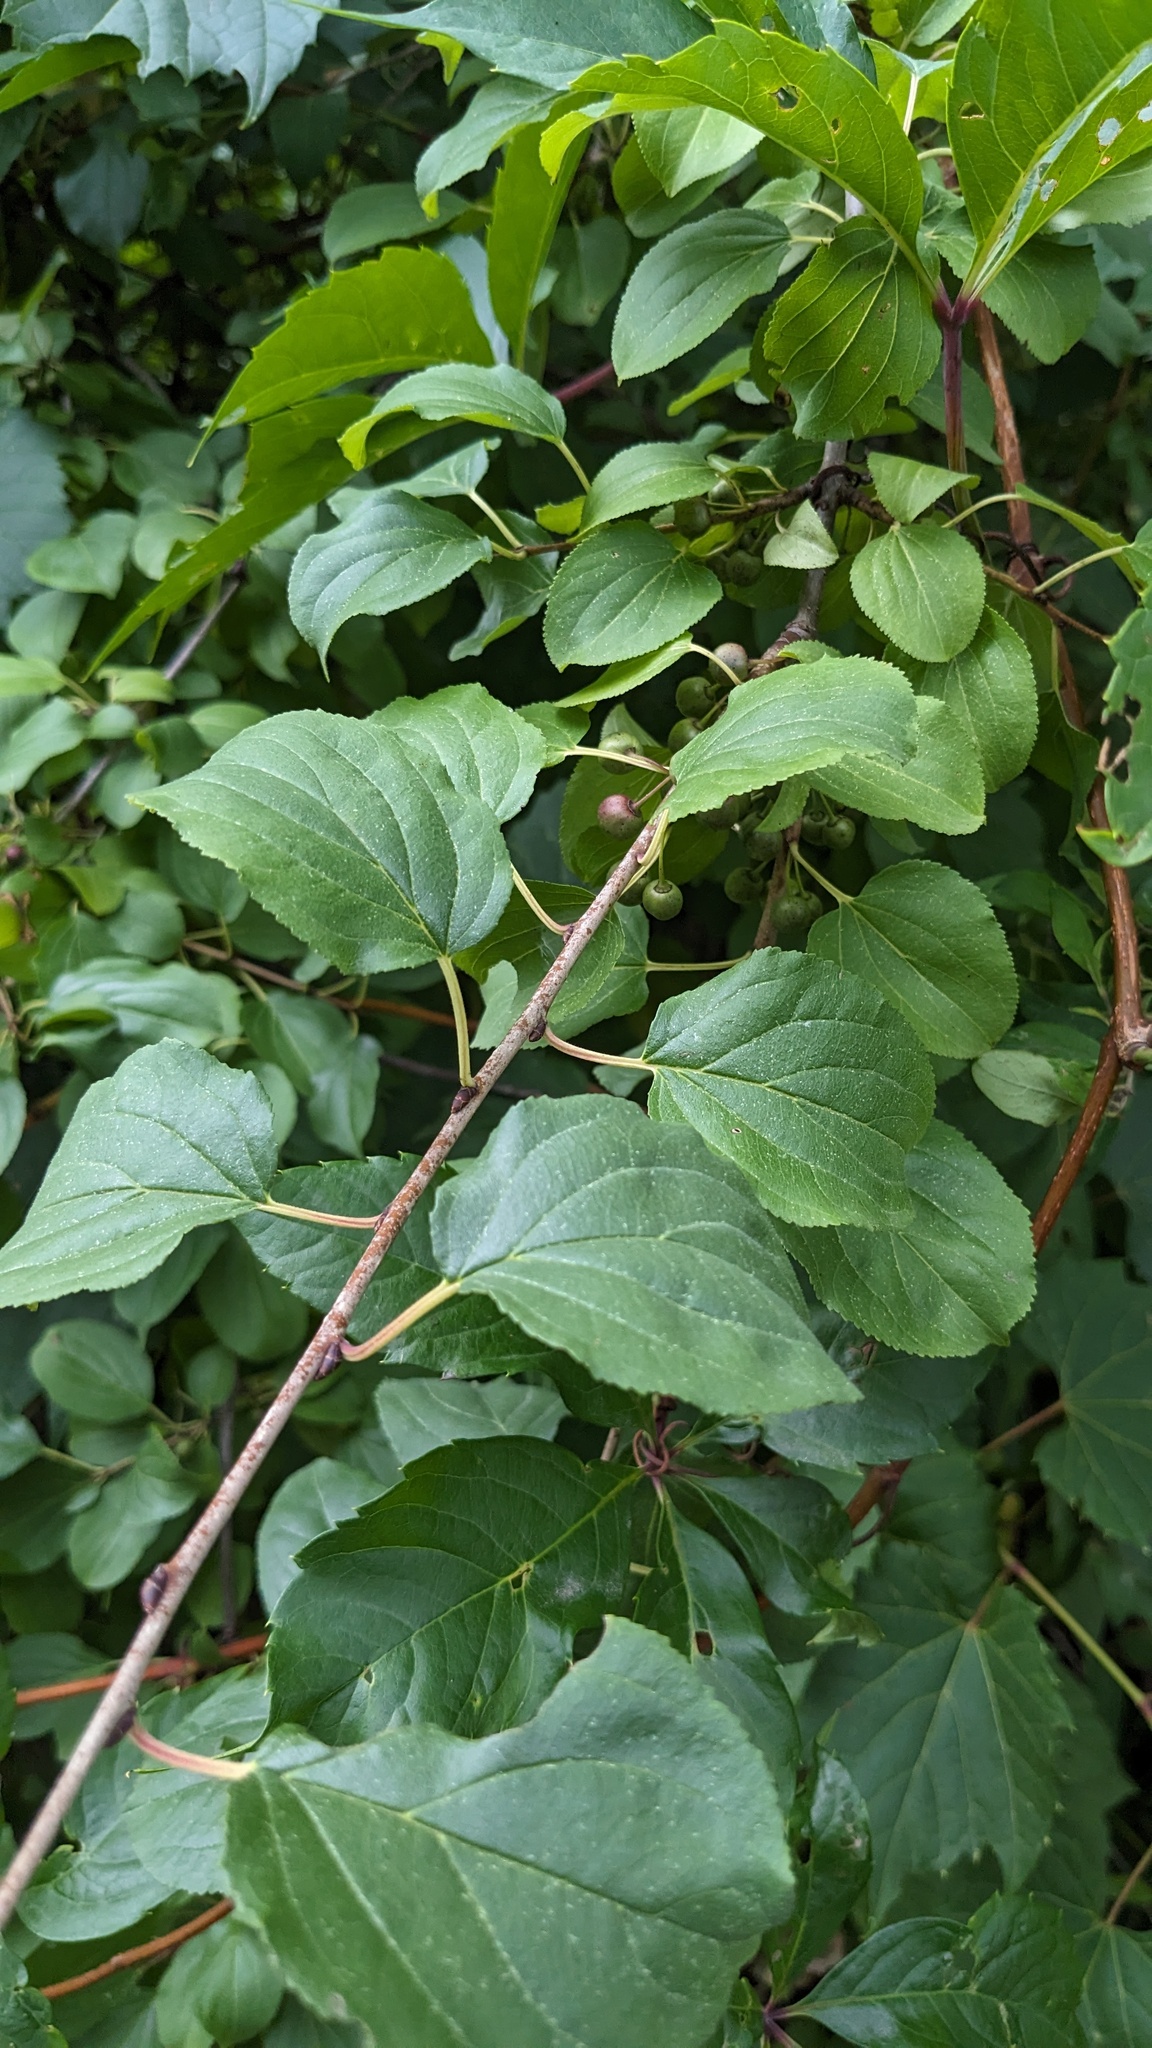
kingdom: Plantae
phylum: Tracheophyta
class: Magnoliopsida
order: Rosales
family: Rhamnaceae
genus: Rhamnus
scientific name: Rhamnus cathartica
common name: Common buckthorn
